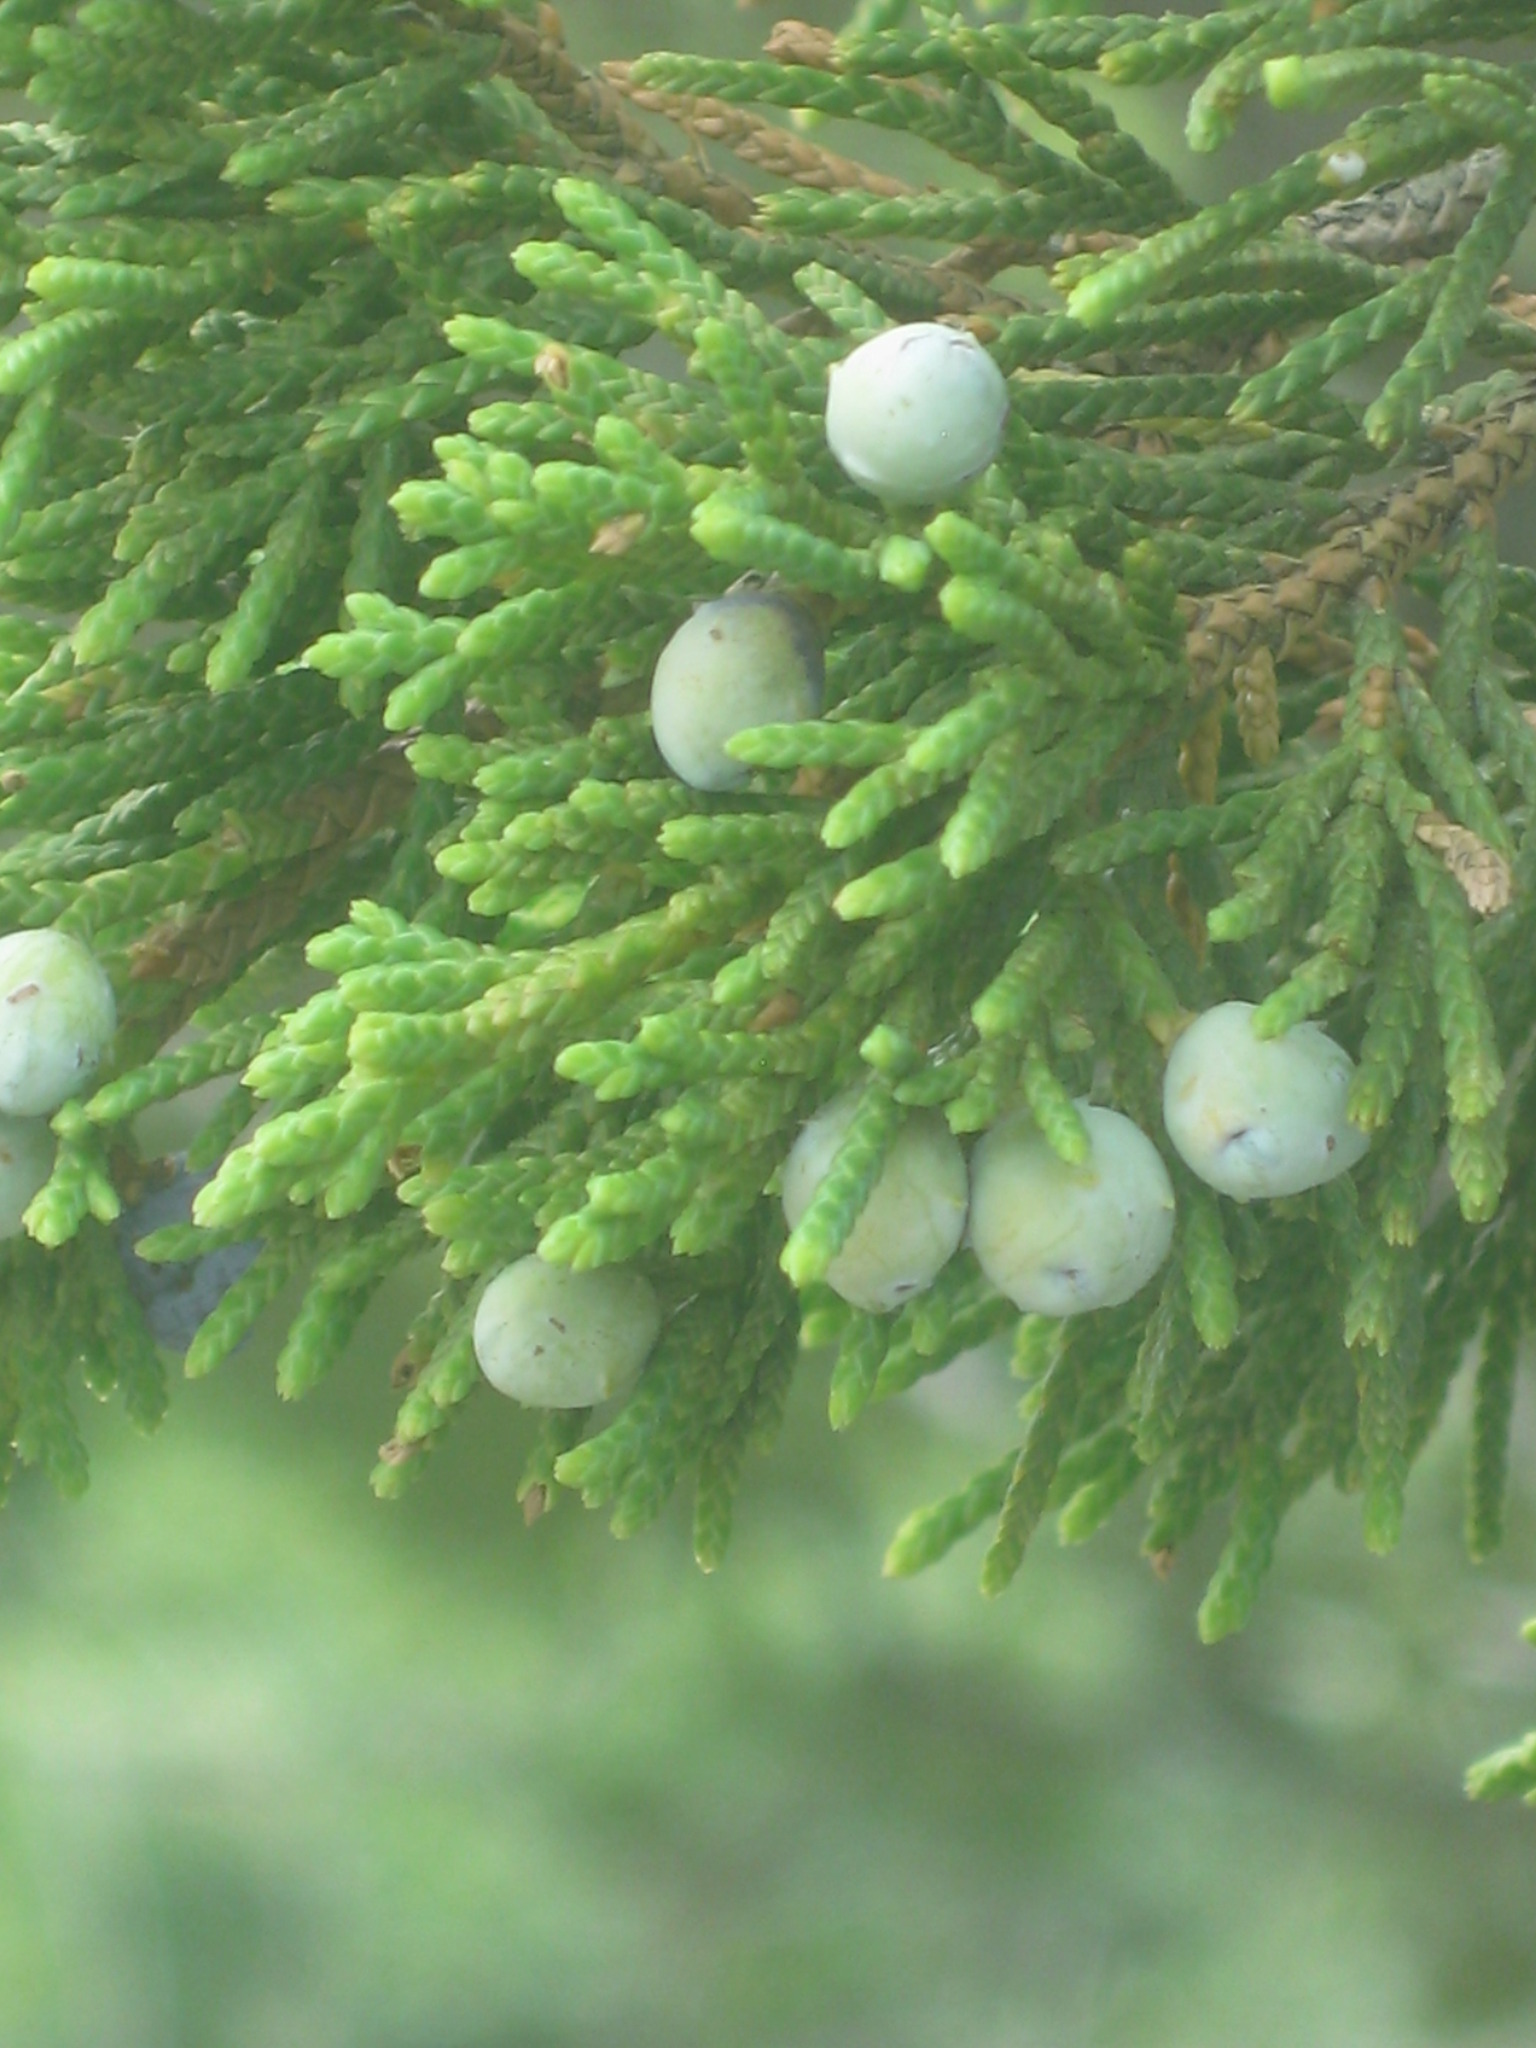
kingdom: Plantae
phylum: Tracheophyta
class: Pinopsida
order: Pinales
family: Cupressaceae
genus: Juniperus
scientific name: Juniperus virginiana
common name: Red juniper
